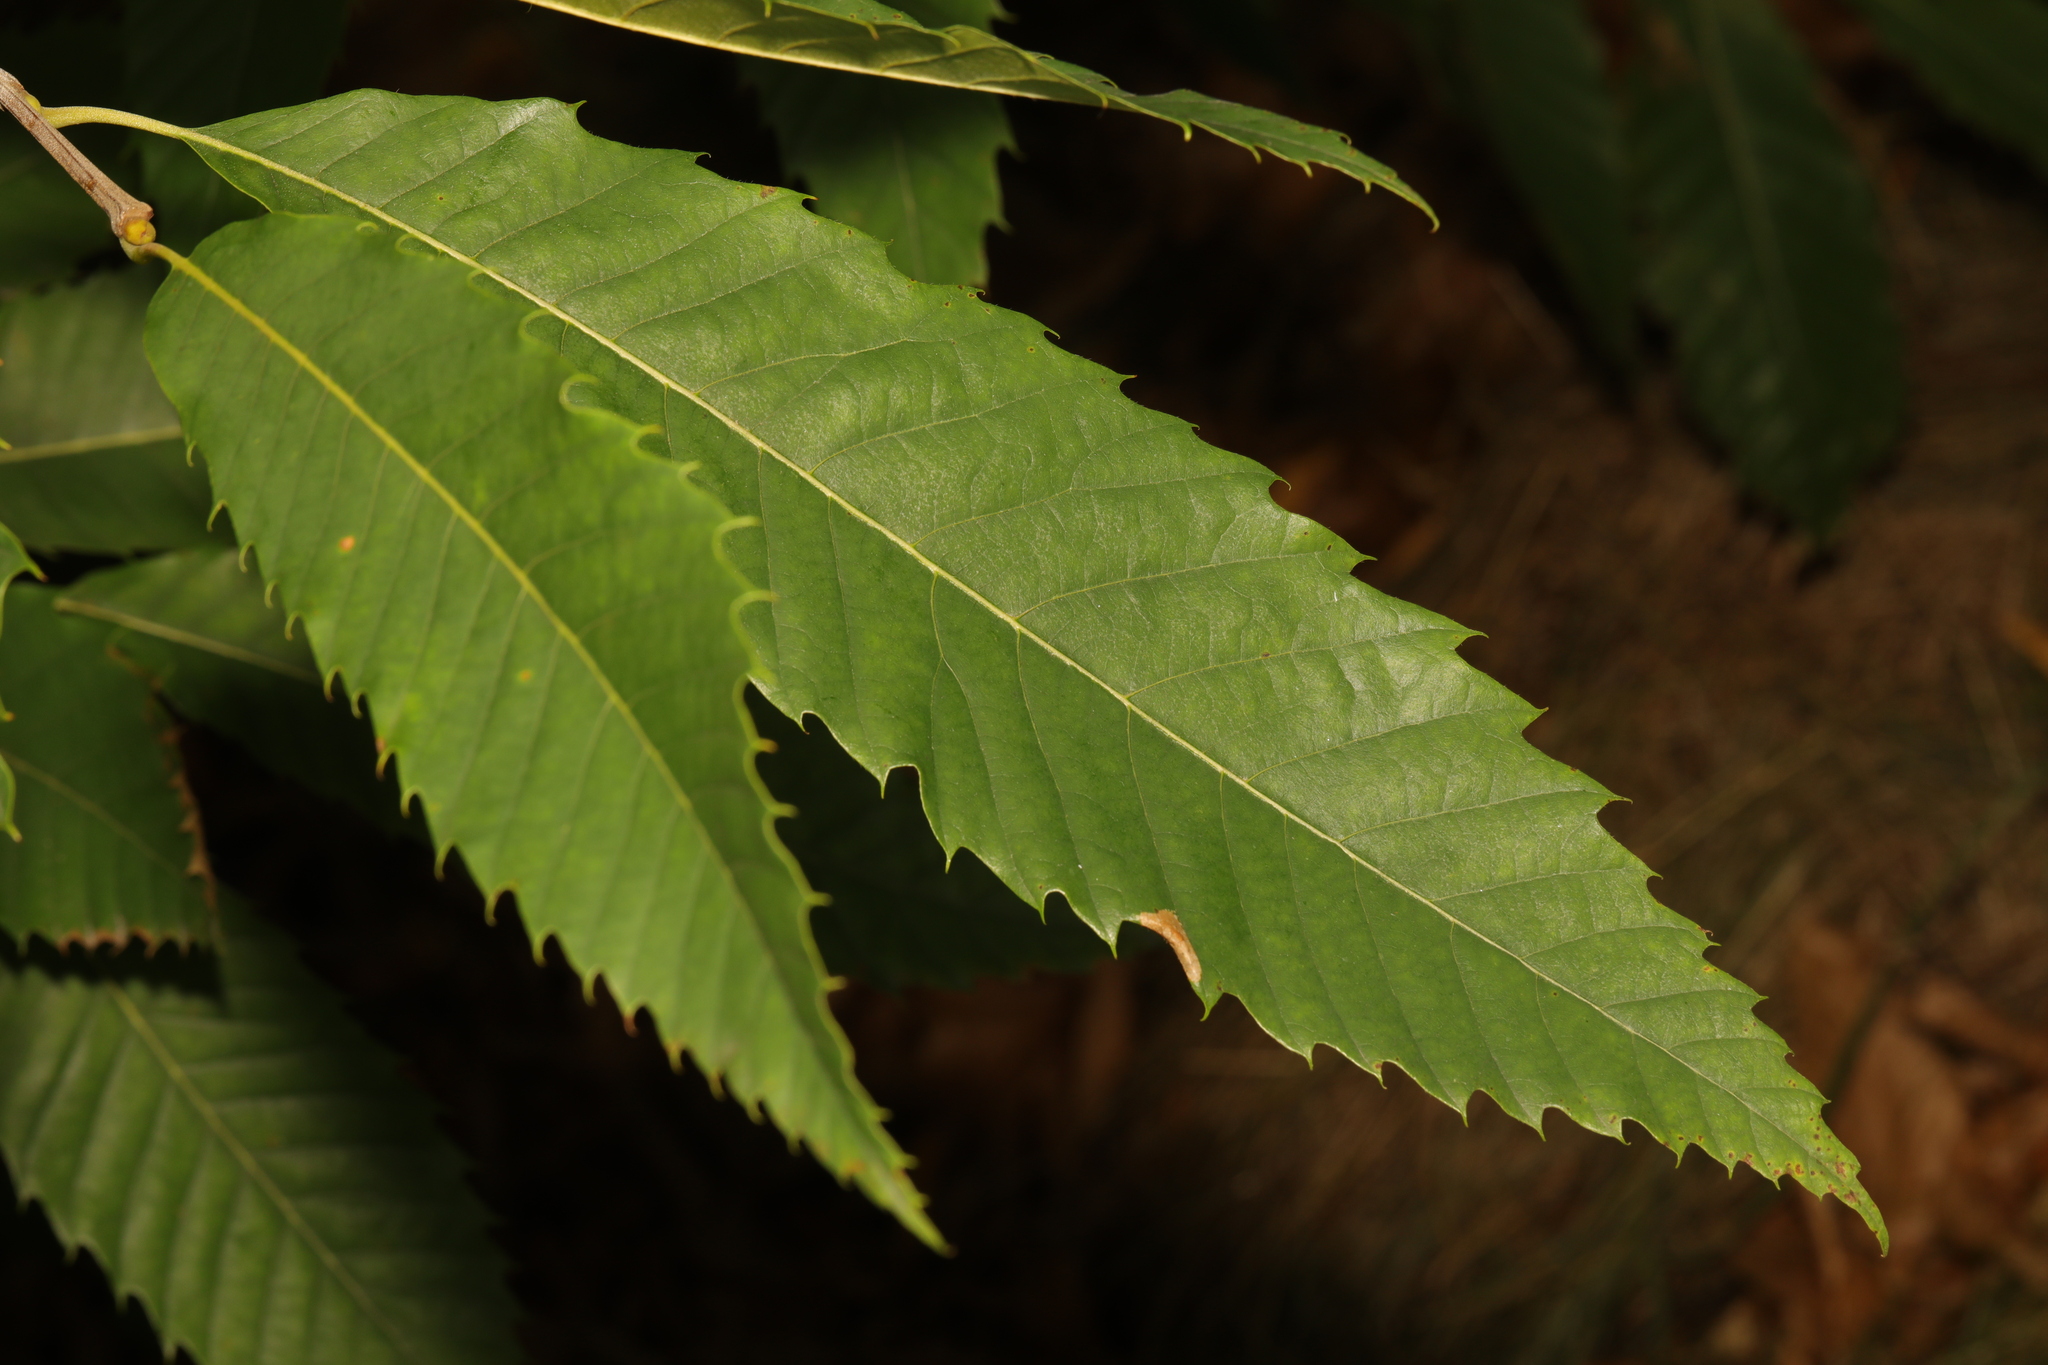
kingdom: Plantae
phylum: Tracheophyta
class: Magnoliopsida
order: Fagales
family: Fagaceae
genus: Castanea
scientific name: Castanea sativa
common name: Sweet chestnut
